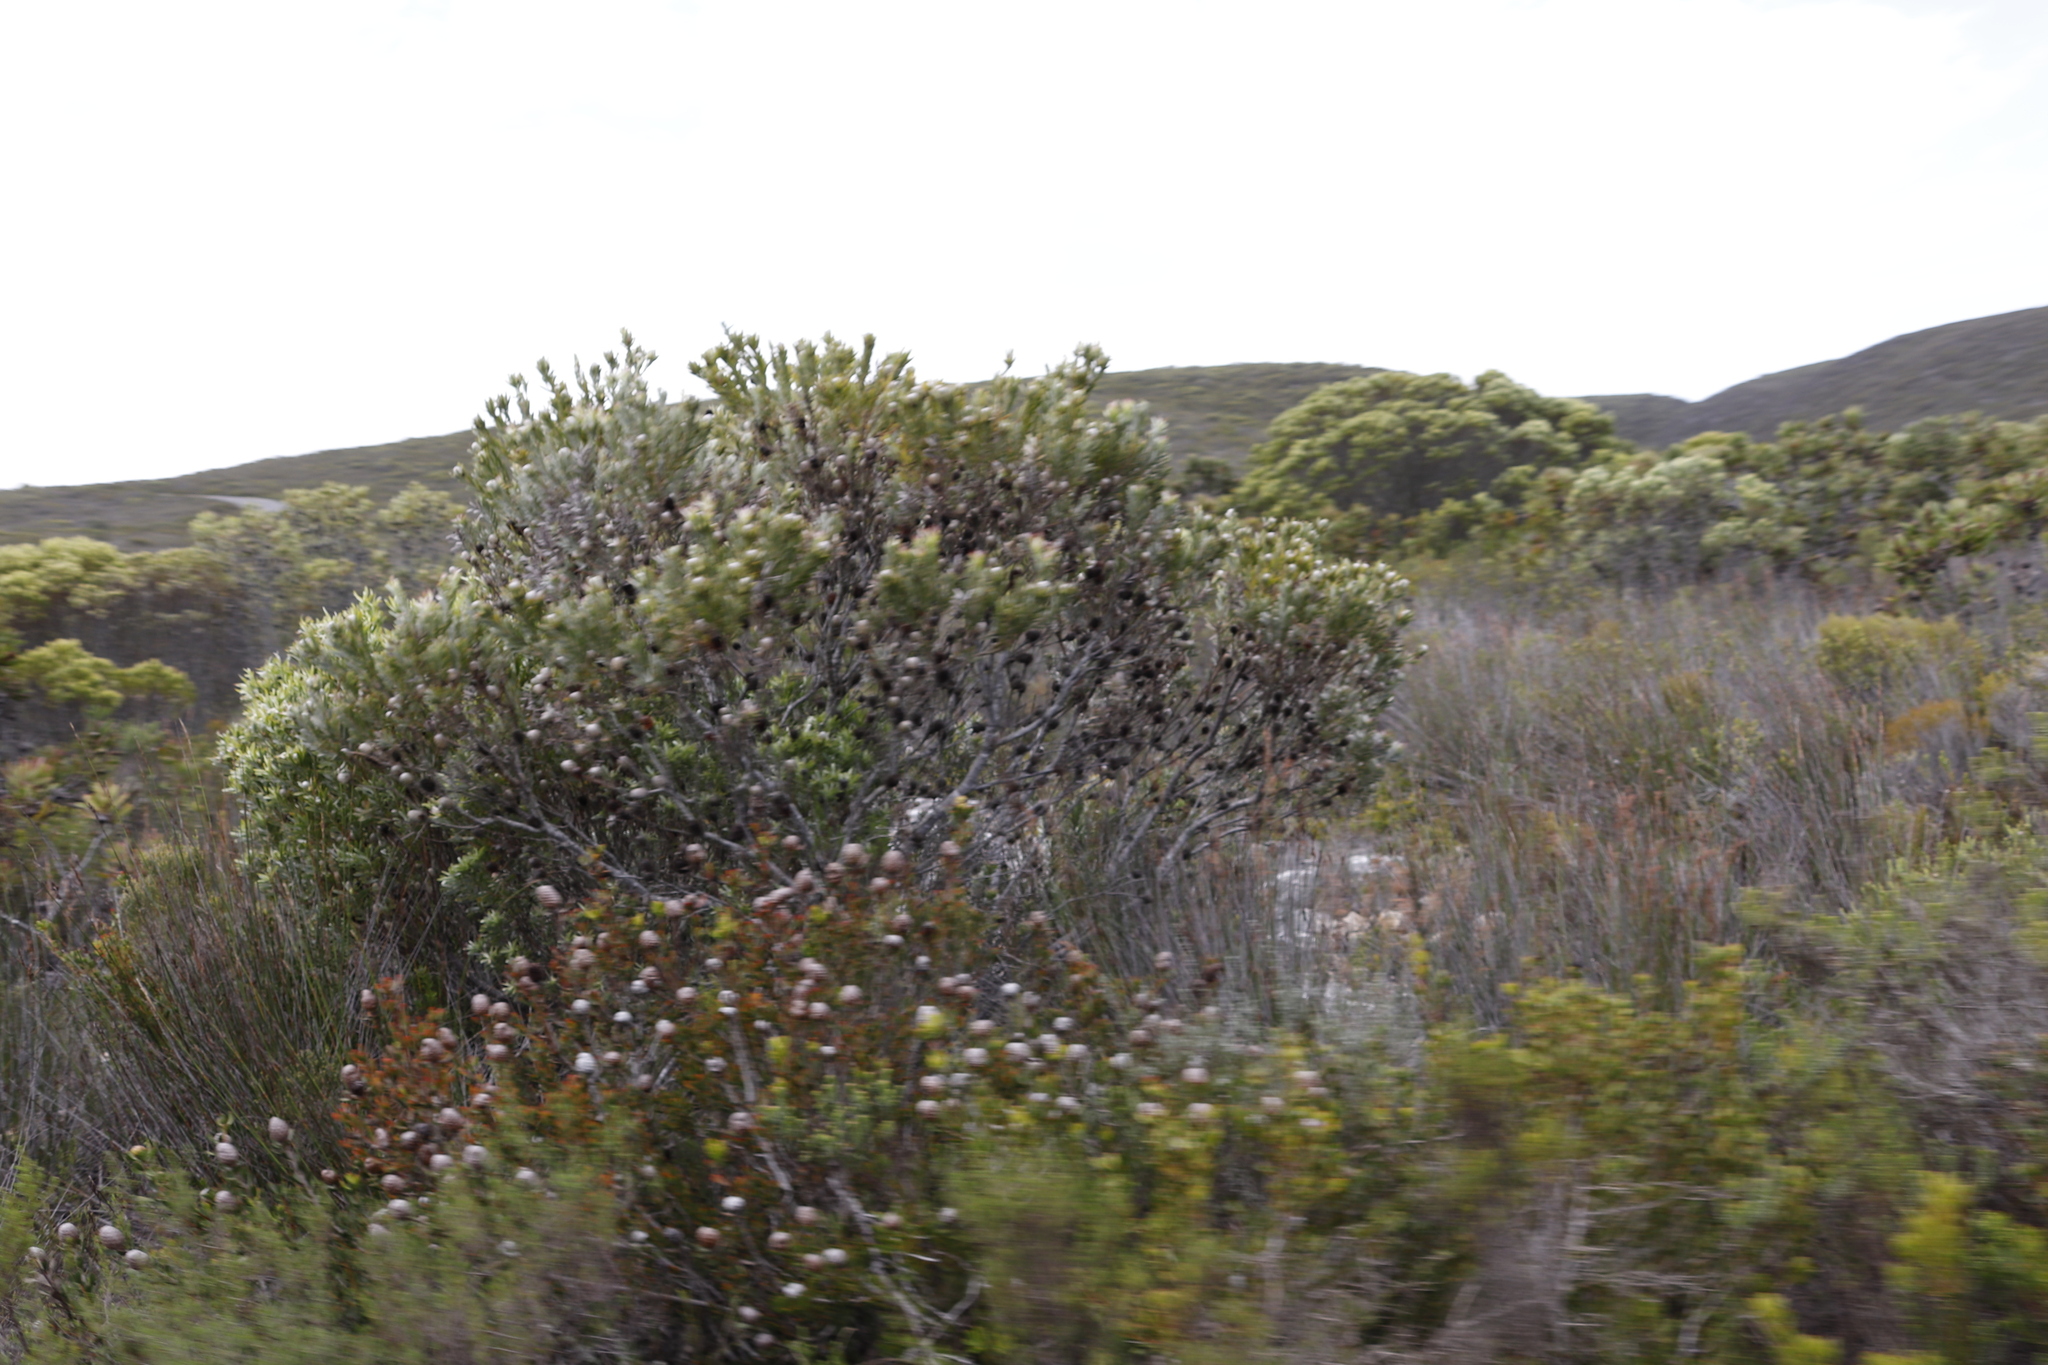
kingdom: Plantae
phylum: Tracheophyta
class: Magnoliopsida
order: Proteales
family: Proteaceae
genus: Leucadendron
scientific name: Leucadendron meridianum
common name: Limestone conebush
